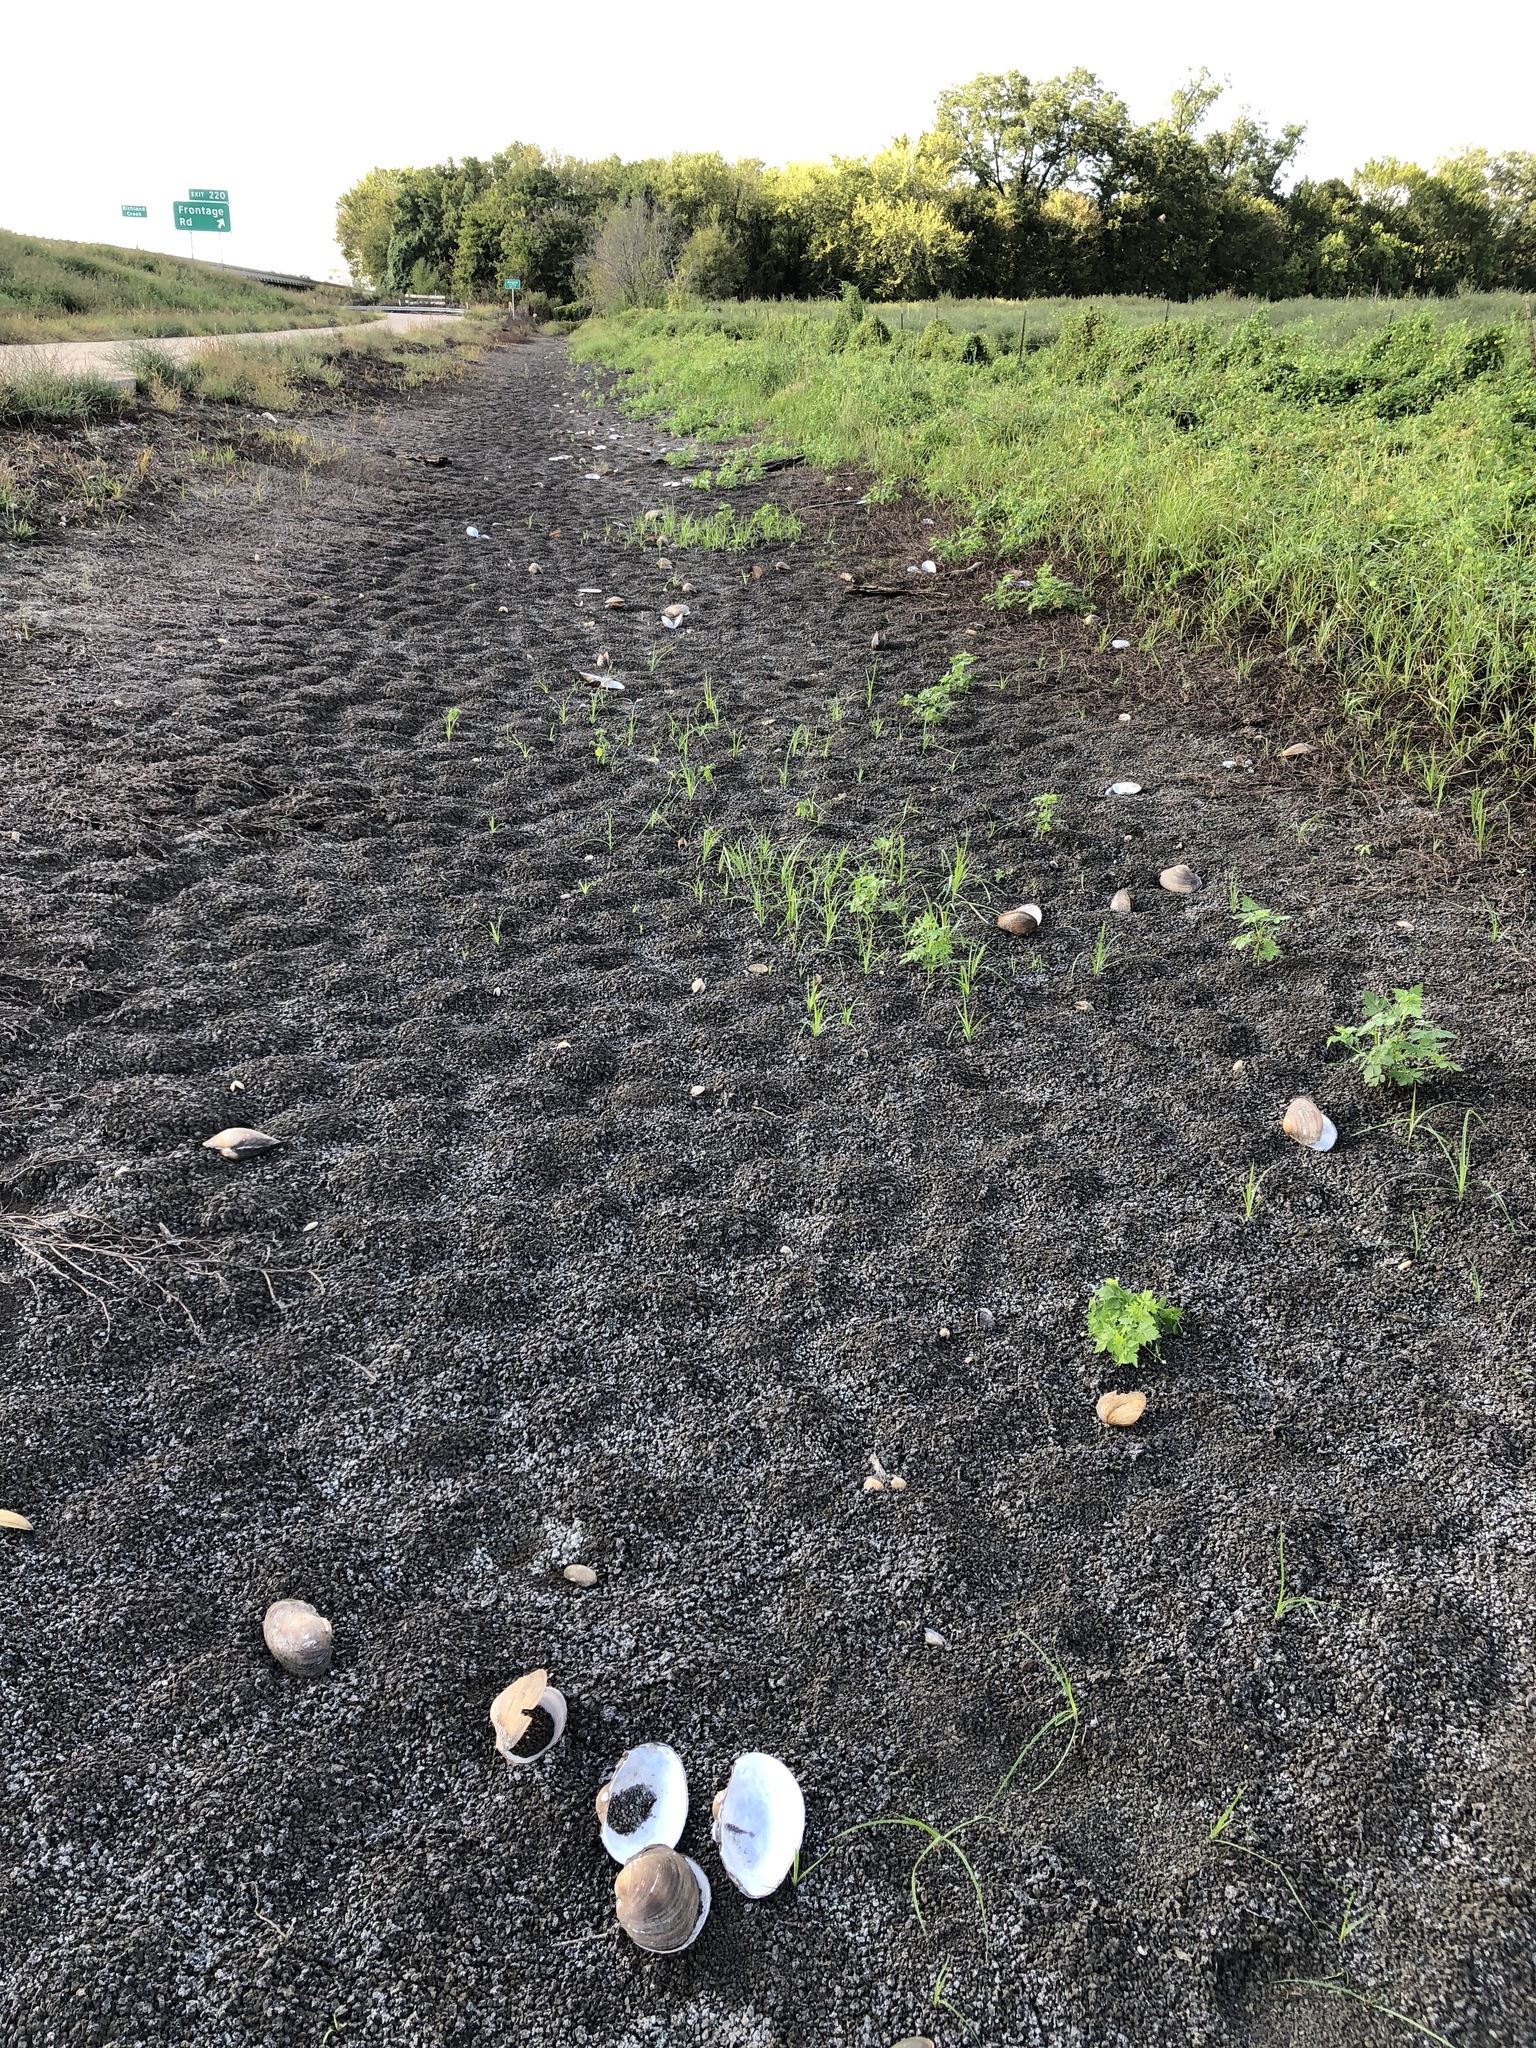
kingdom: Animalia
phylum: Mollusca
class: Bivalvia
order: Unionida
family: Unionidae
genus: Pyganodon
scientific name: Pyganodon grandis
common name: Giant floater
